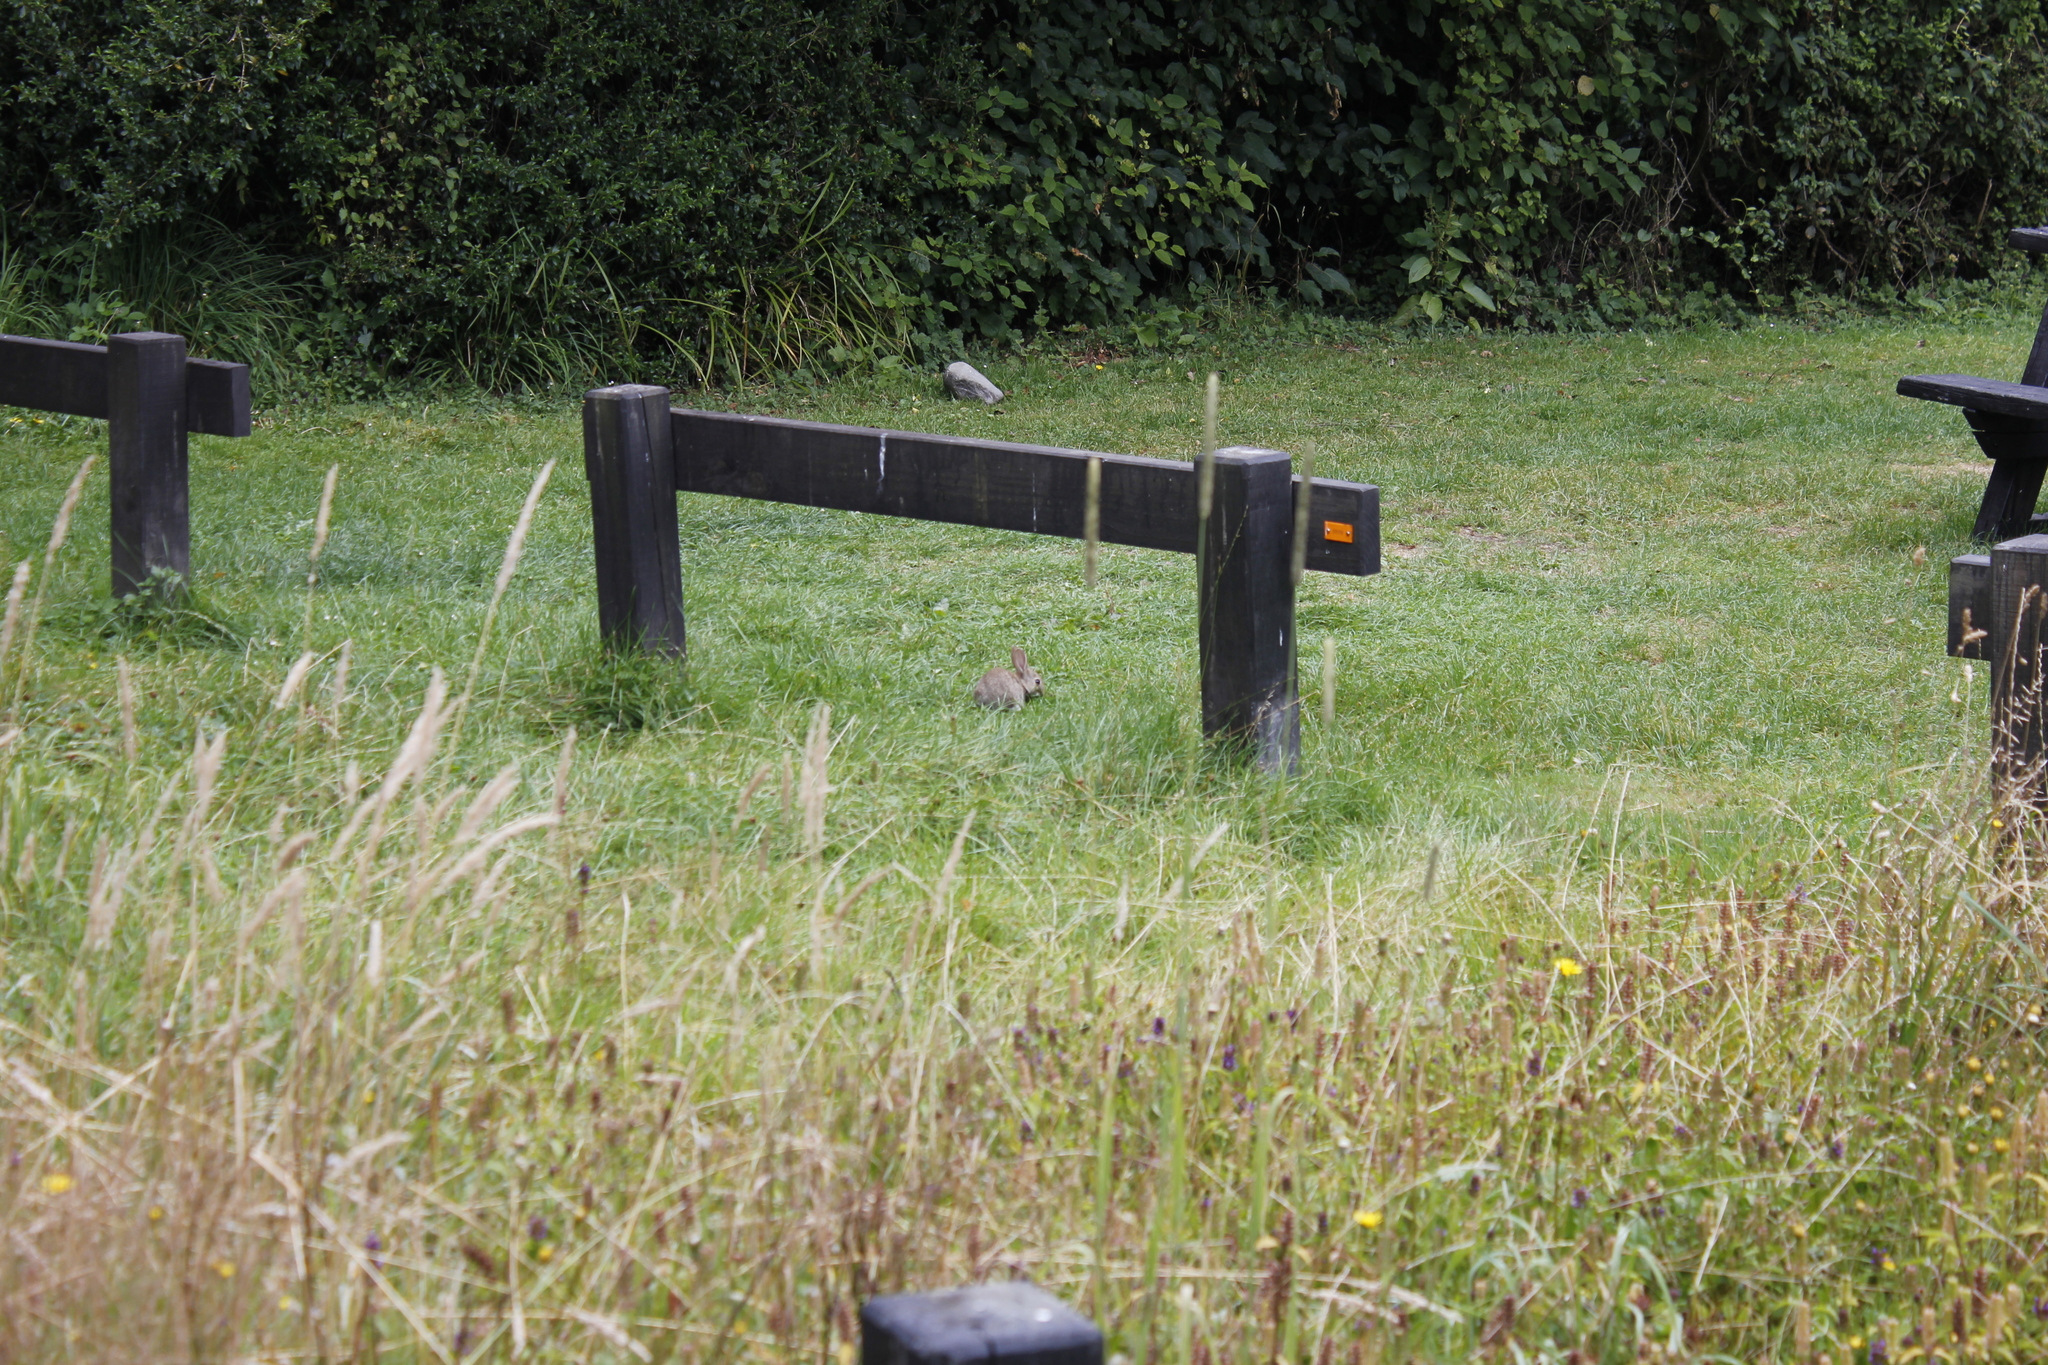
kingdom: Animalia
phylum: Chordata
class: Mammalia
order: Lagomorpha
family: Leporidae
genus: Oryctolagus
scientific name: Oryctolagus cuniculus
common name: European rabbit
